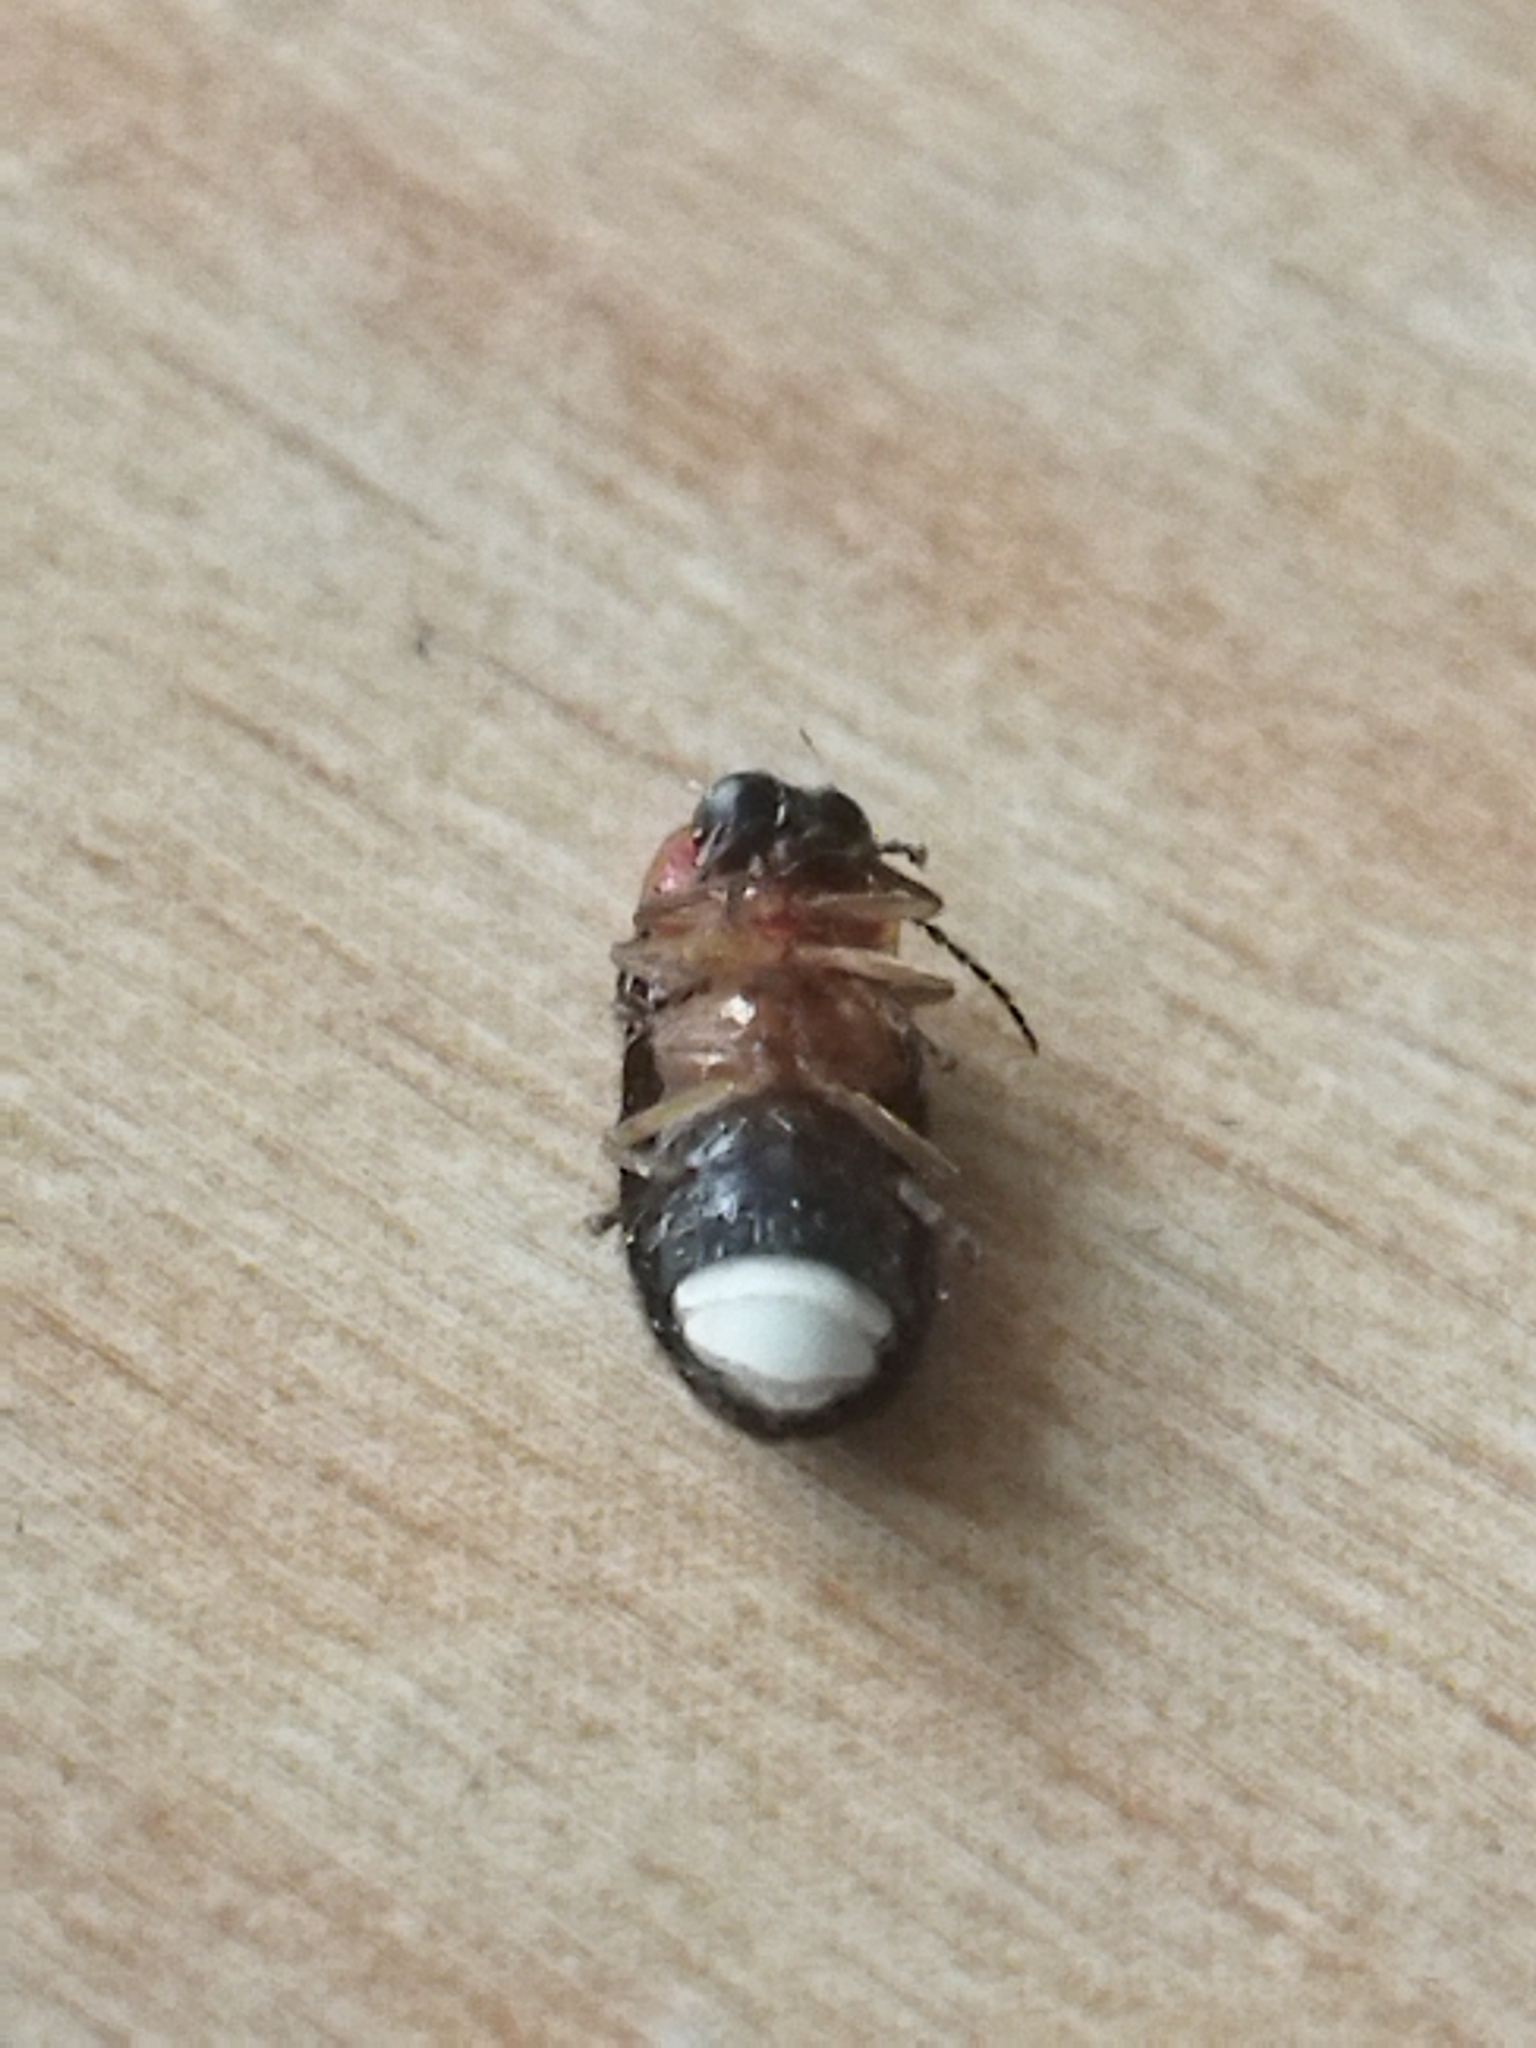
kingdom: Animalia
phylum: Arthropoda
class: Insecta
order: Coleoptera
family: Lampyridae
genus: Luciola
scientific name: Luciola lusitanica
